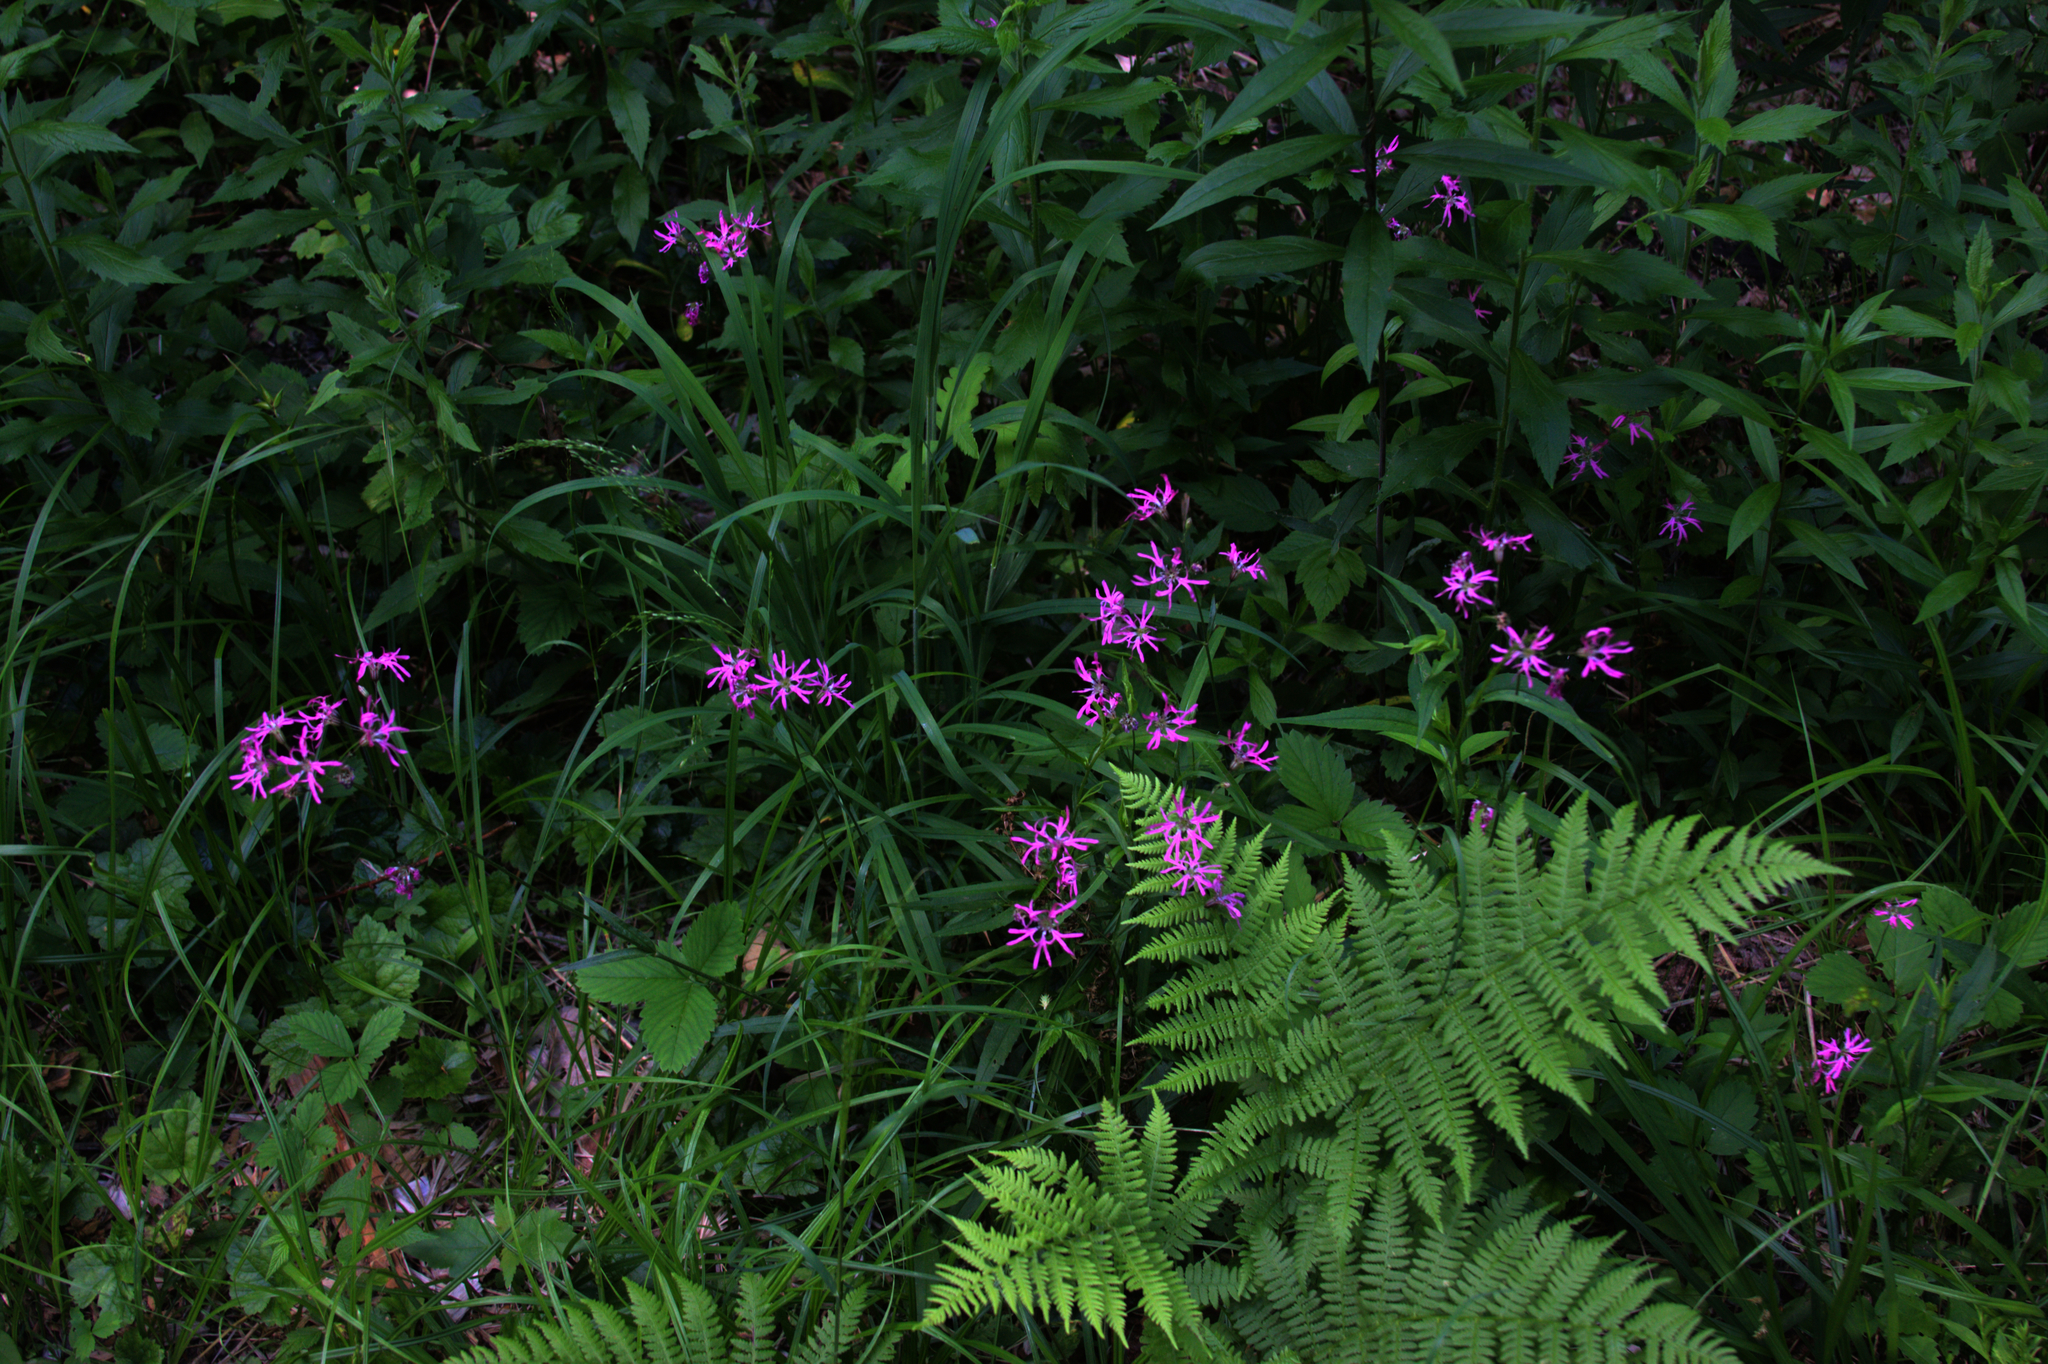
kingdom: Plantae
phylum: Tracheophyta
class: Magnoliopsida
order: Caryophyllales
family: Caryophyllaceae
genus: Silene
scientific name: Silene flos-cuculi
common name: Ragged-robin
